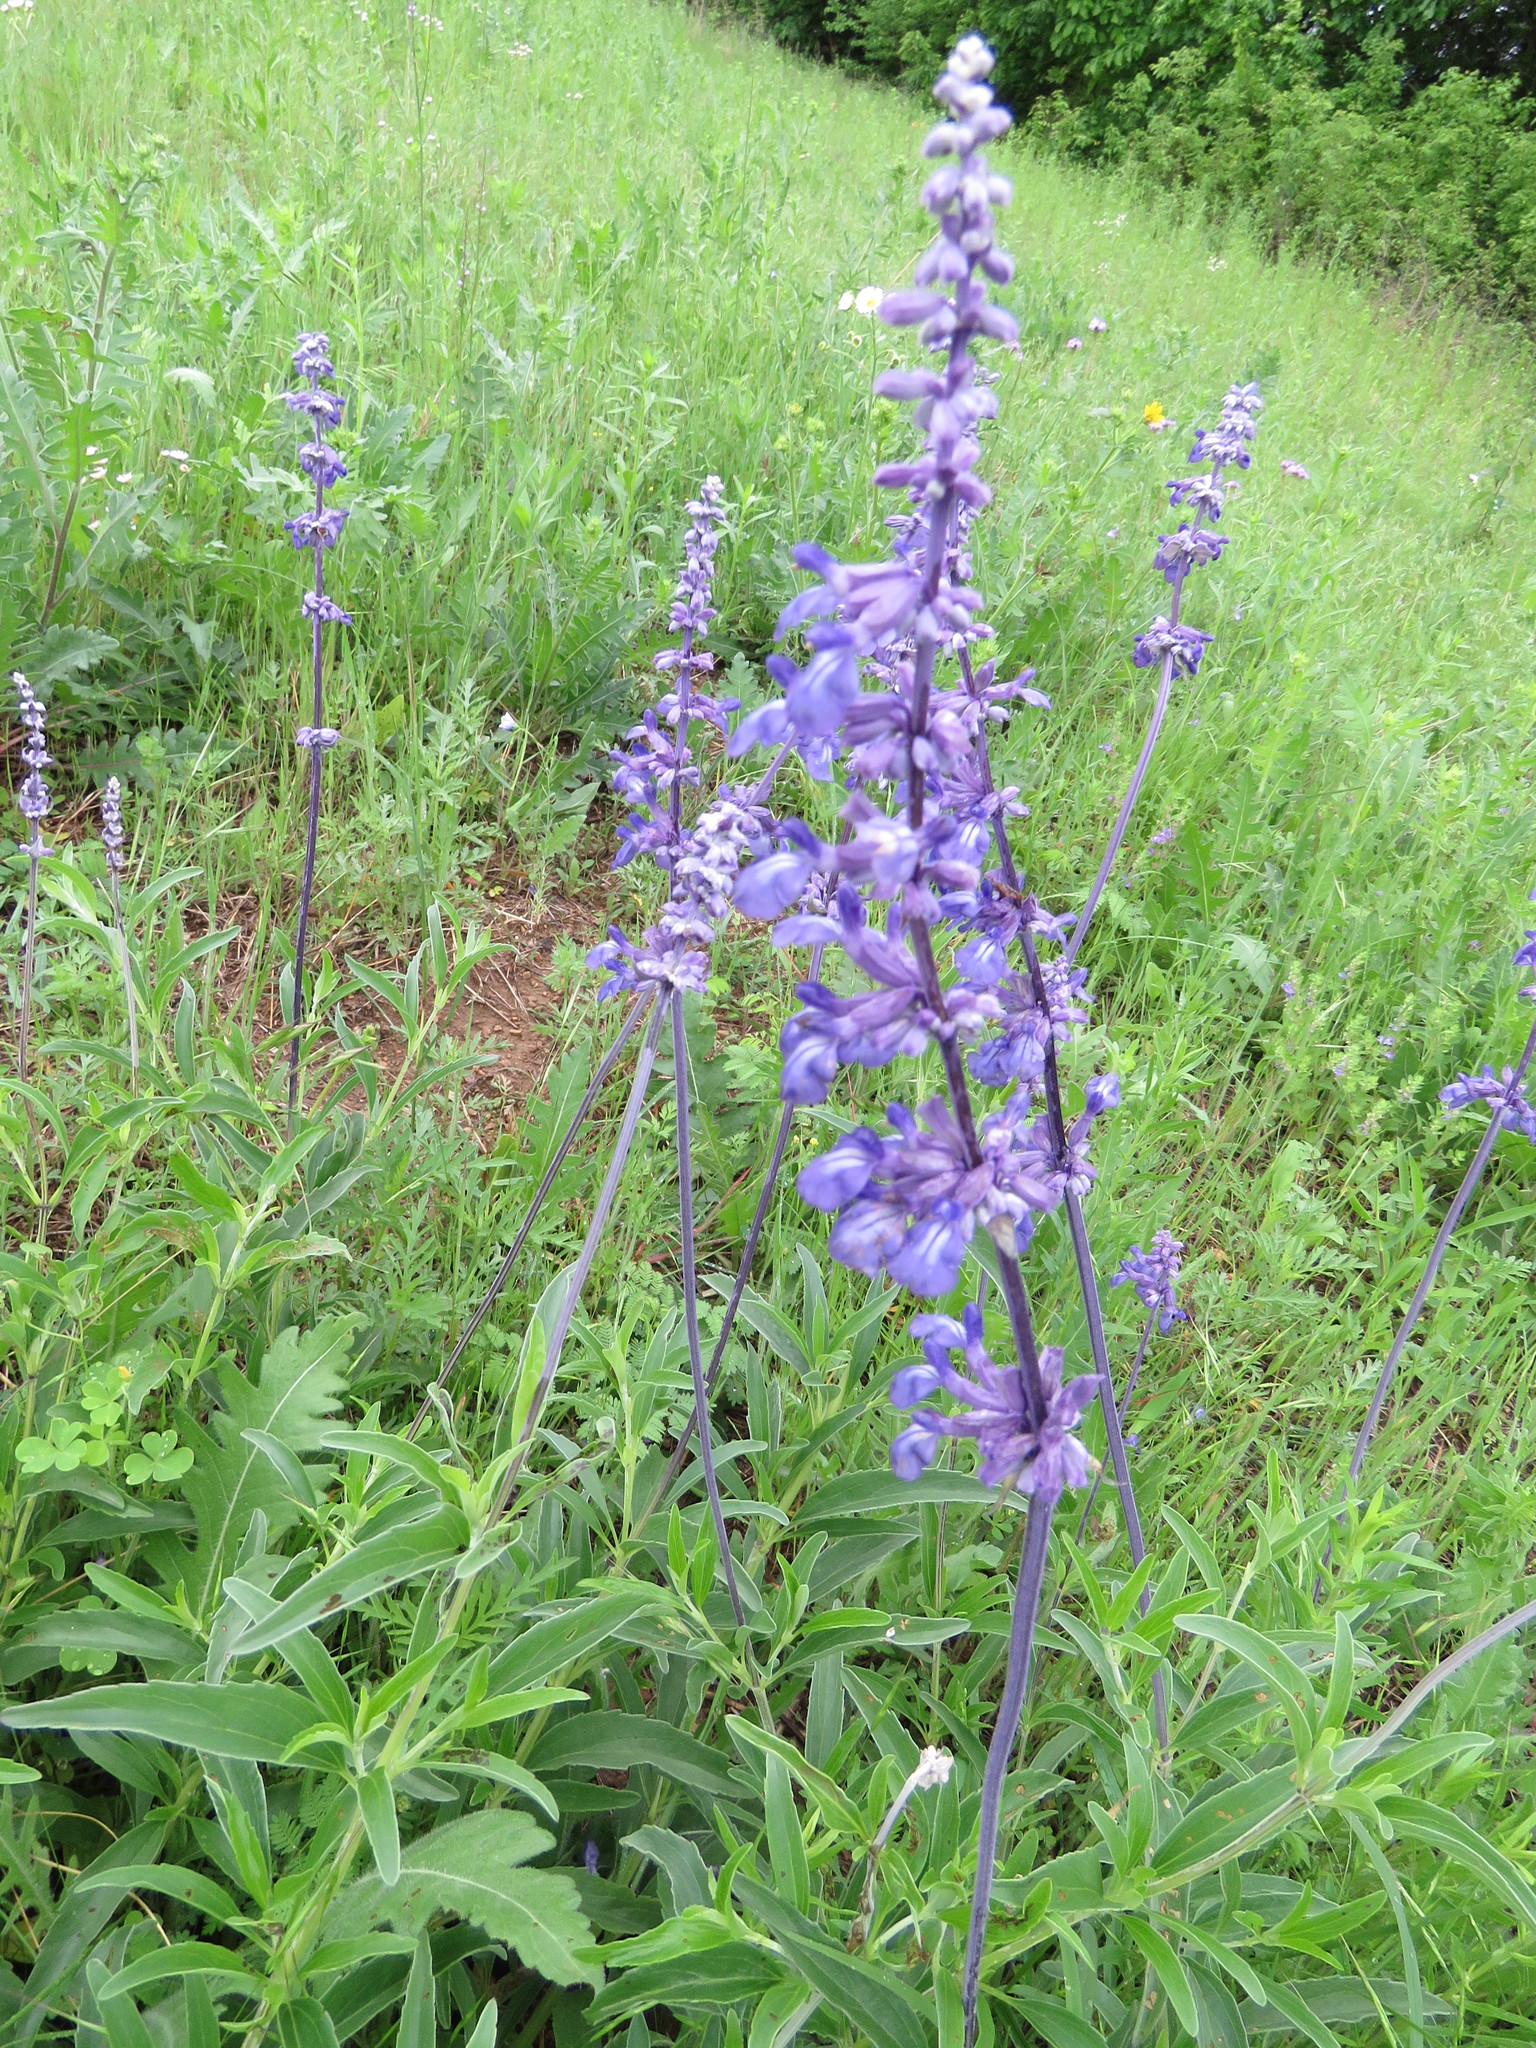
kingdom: Plantae
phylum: Tracheophyta
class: Magnoliopsida
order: Lamiales
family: Lamiaceae
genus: Salvia
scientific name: Salvia farinacea
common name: Mealy sage
